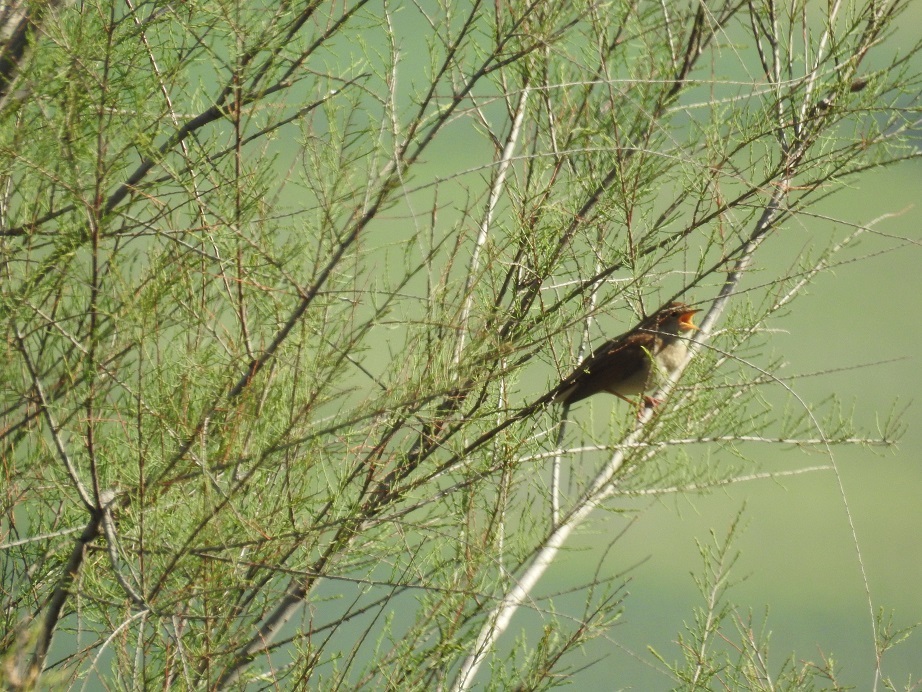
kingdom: Animalia
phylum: Chordata
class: Aves
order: Passeriformes
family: Muscicapidae
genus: Luscinia
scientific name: Luscinia megarhynchos
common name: Common nightingale
